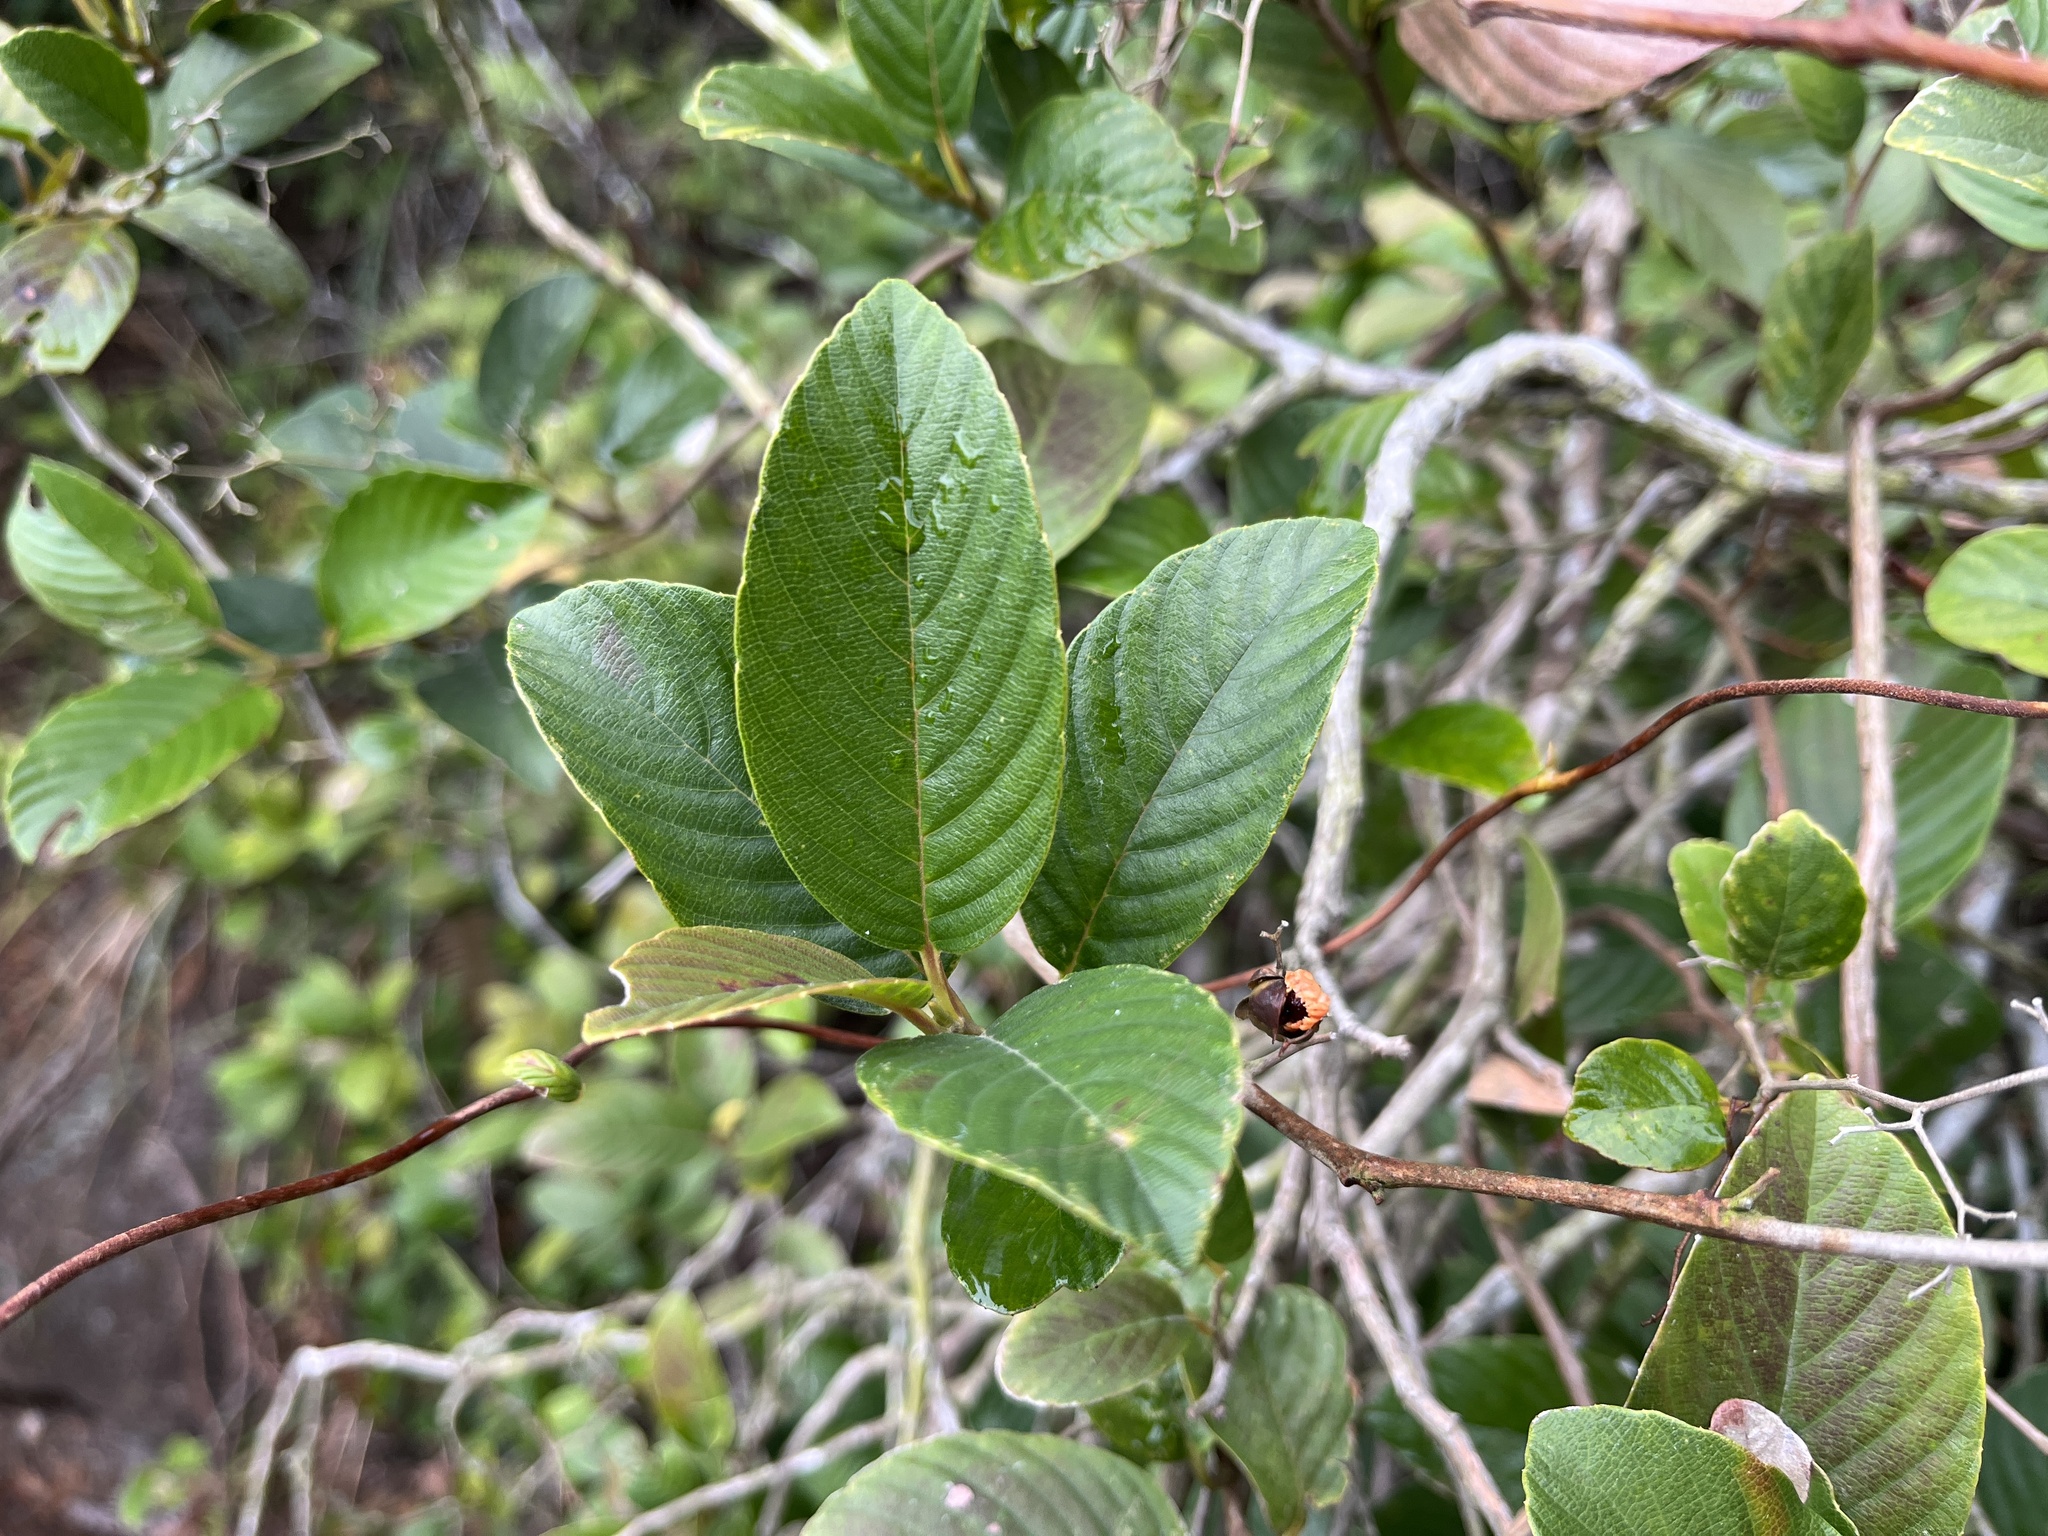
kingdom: Plantae
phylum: Tracheophyta
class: Magnoliopsida
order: Dilleniales
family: Dilleniaceae
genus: Tetracera
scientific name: Tetracera sarmentosa
